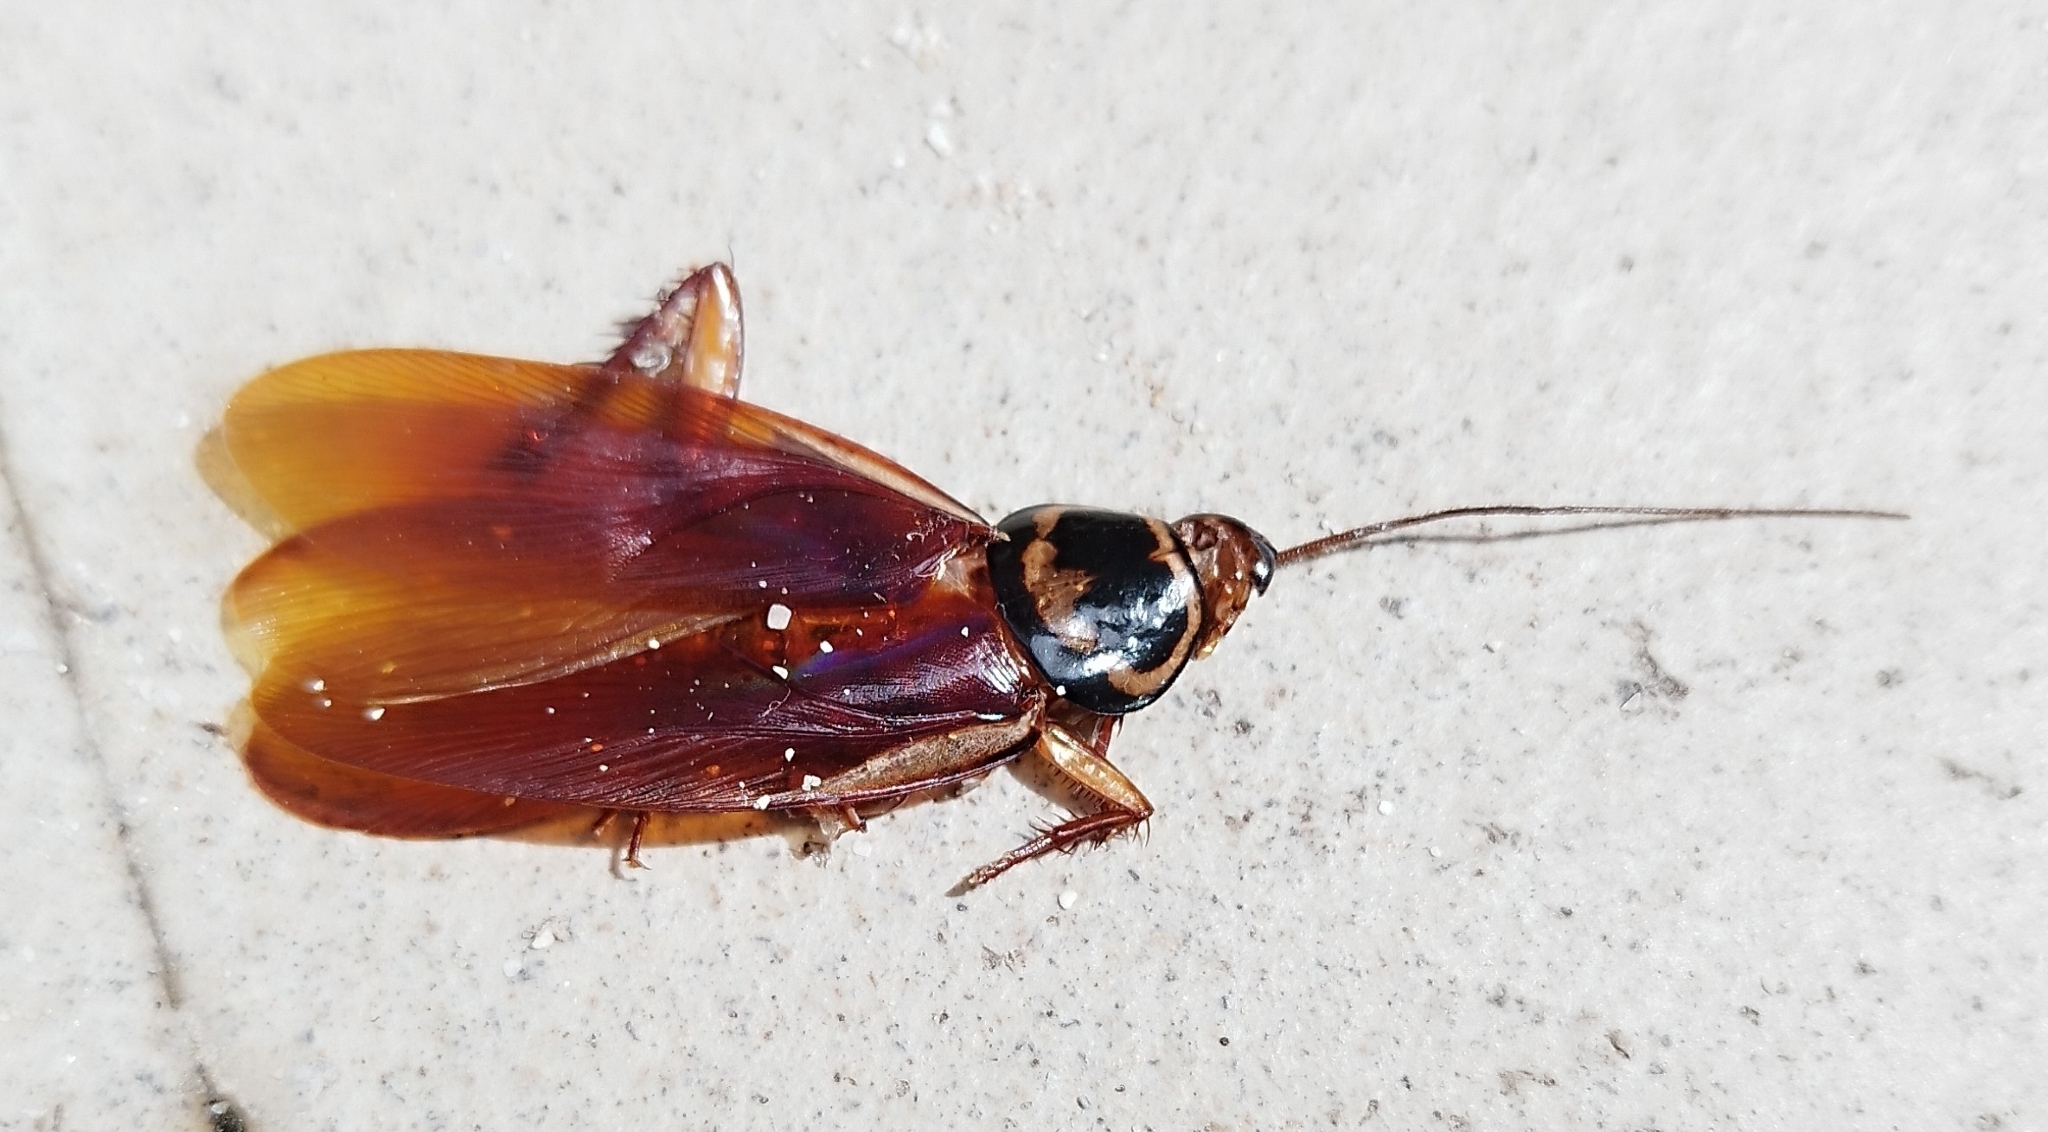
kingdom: Animalia
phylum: Arthropoda
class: Insecta
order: Blattodea
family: Blattidae
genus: Periplaneta
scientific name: Periplaneta australasiae
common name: Australian cockroach
